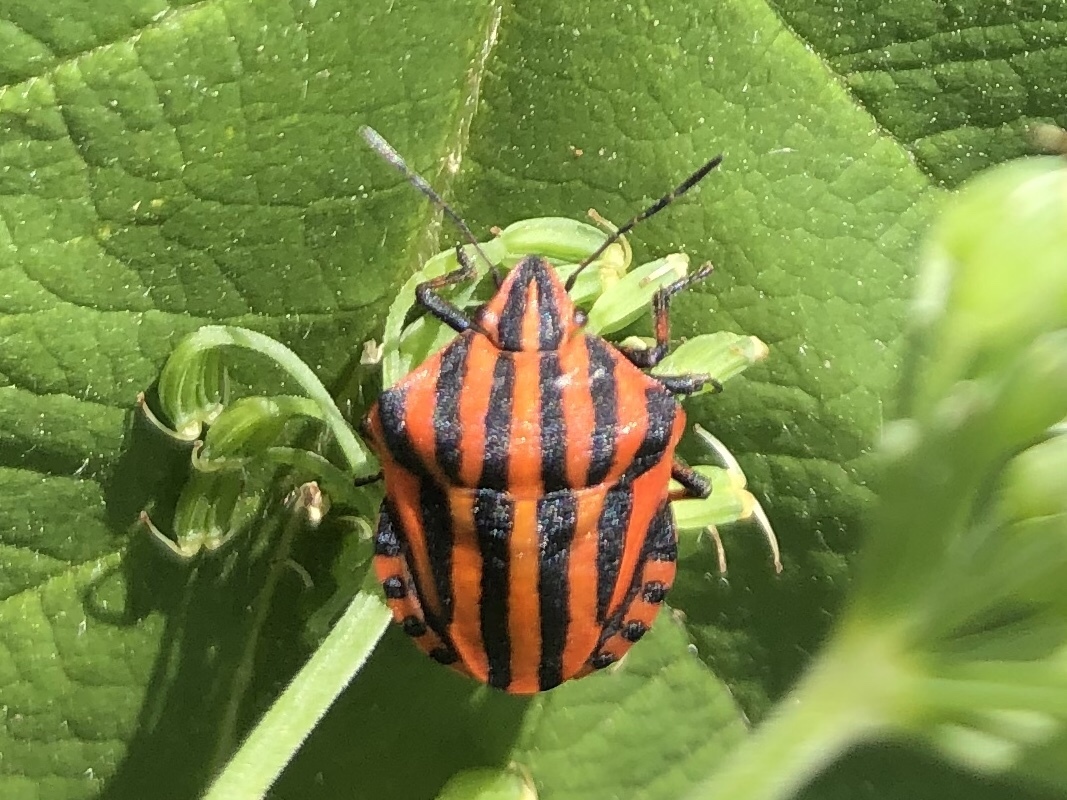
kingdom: Animalia
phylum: Arthropoda
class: Insecta
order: Hemiptera
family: Pentatomidae
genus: Graphosoma
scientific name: Graphosoma italicum
